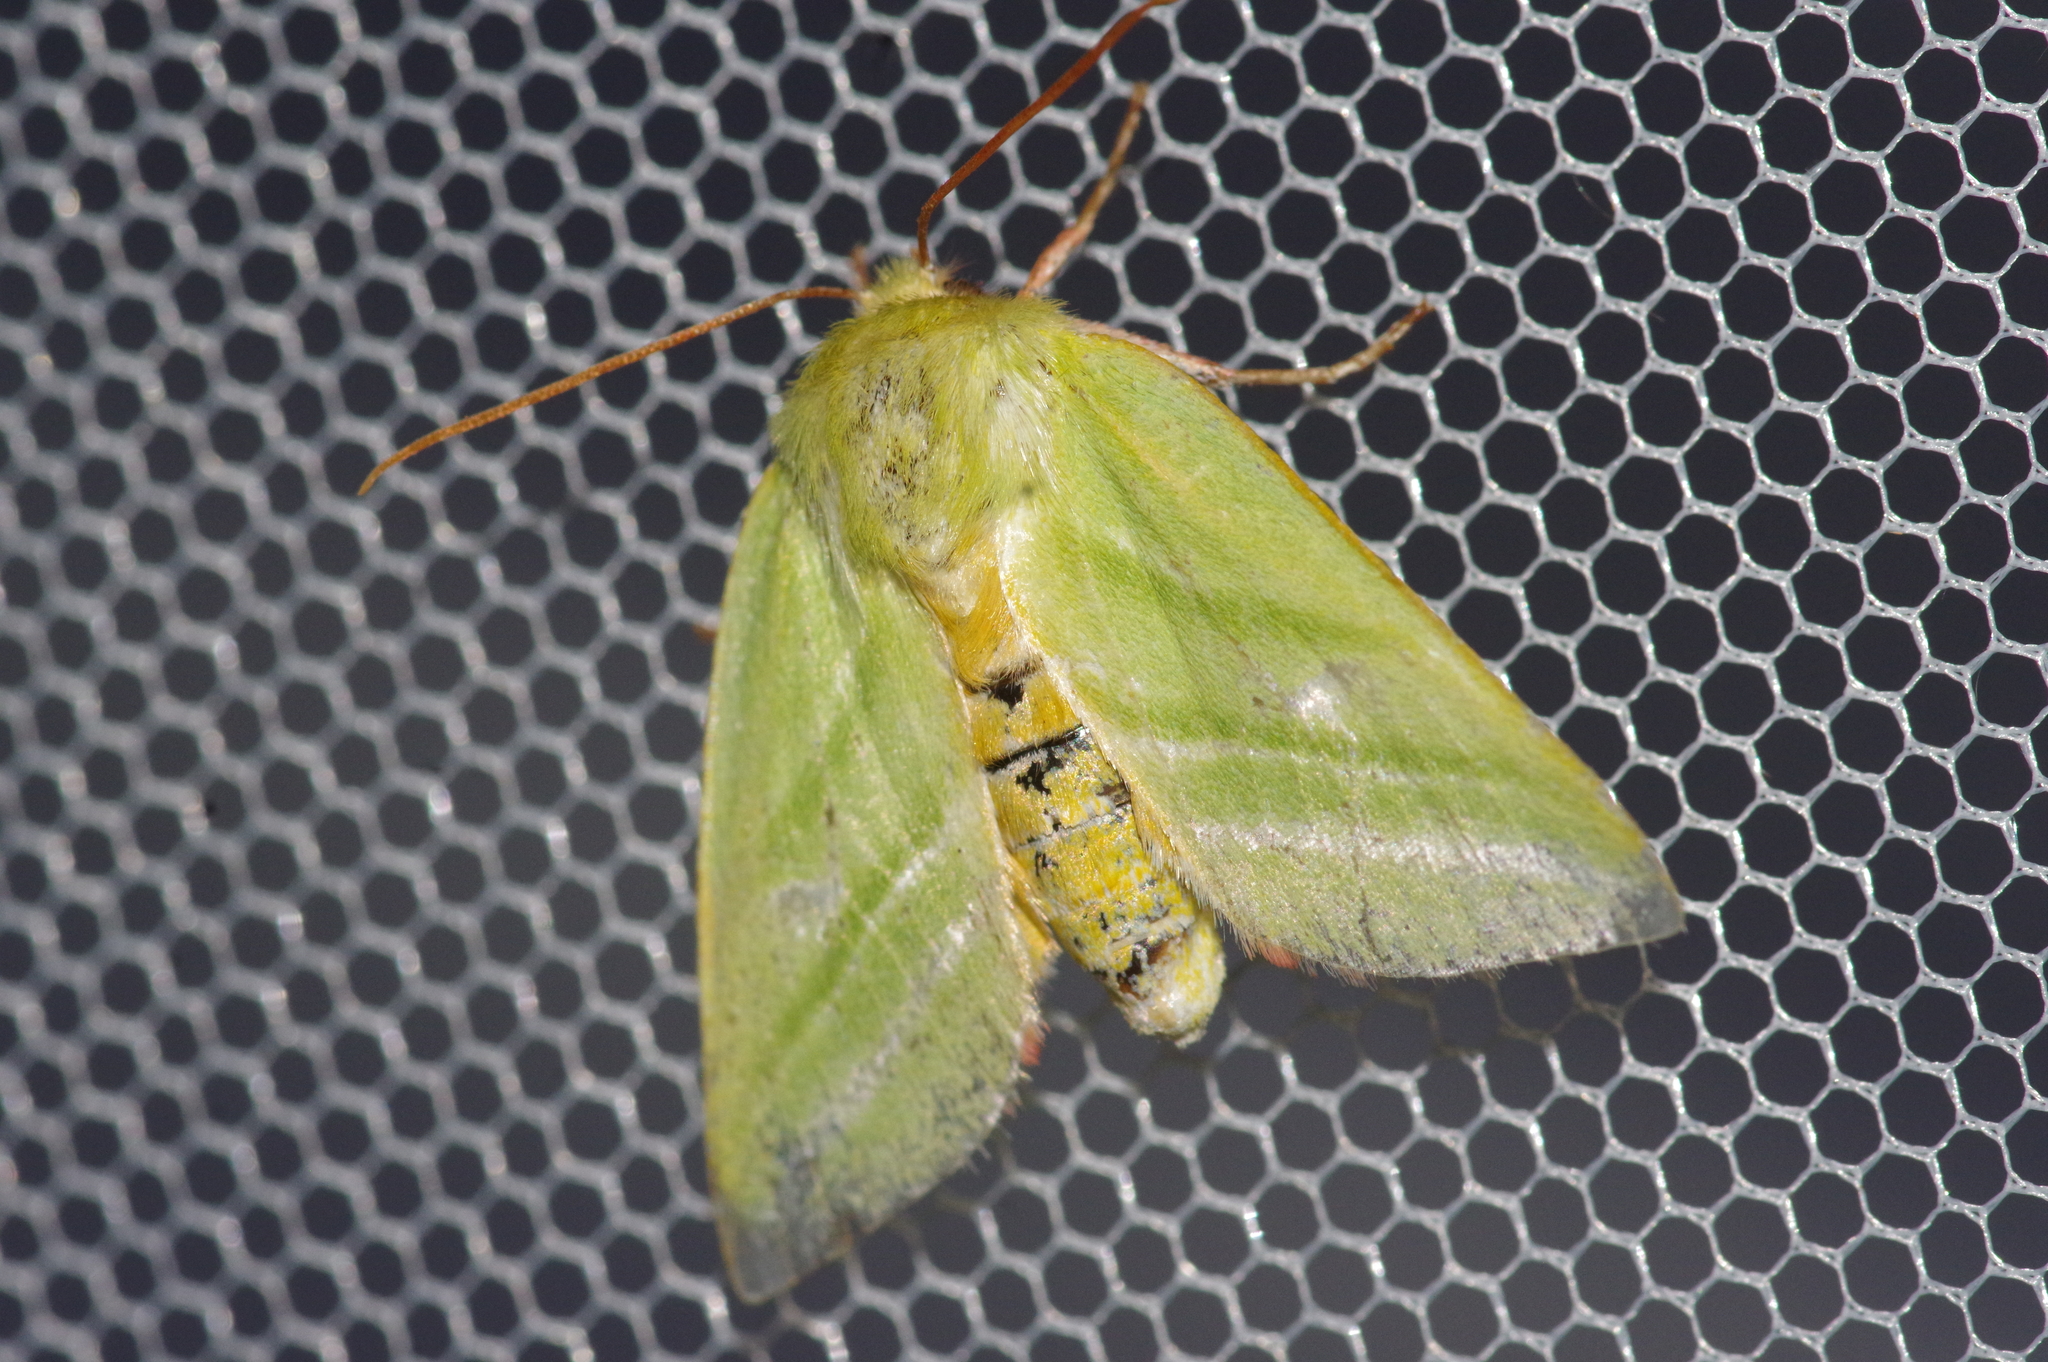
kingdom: Animalia
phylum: Arthropoda
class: Insecta
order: Lepidoptera
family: Nolidae
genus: Pseudoips
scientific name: Pseudoips prasinana
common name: Green silver-lines
